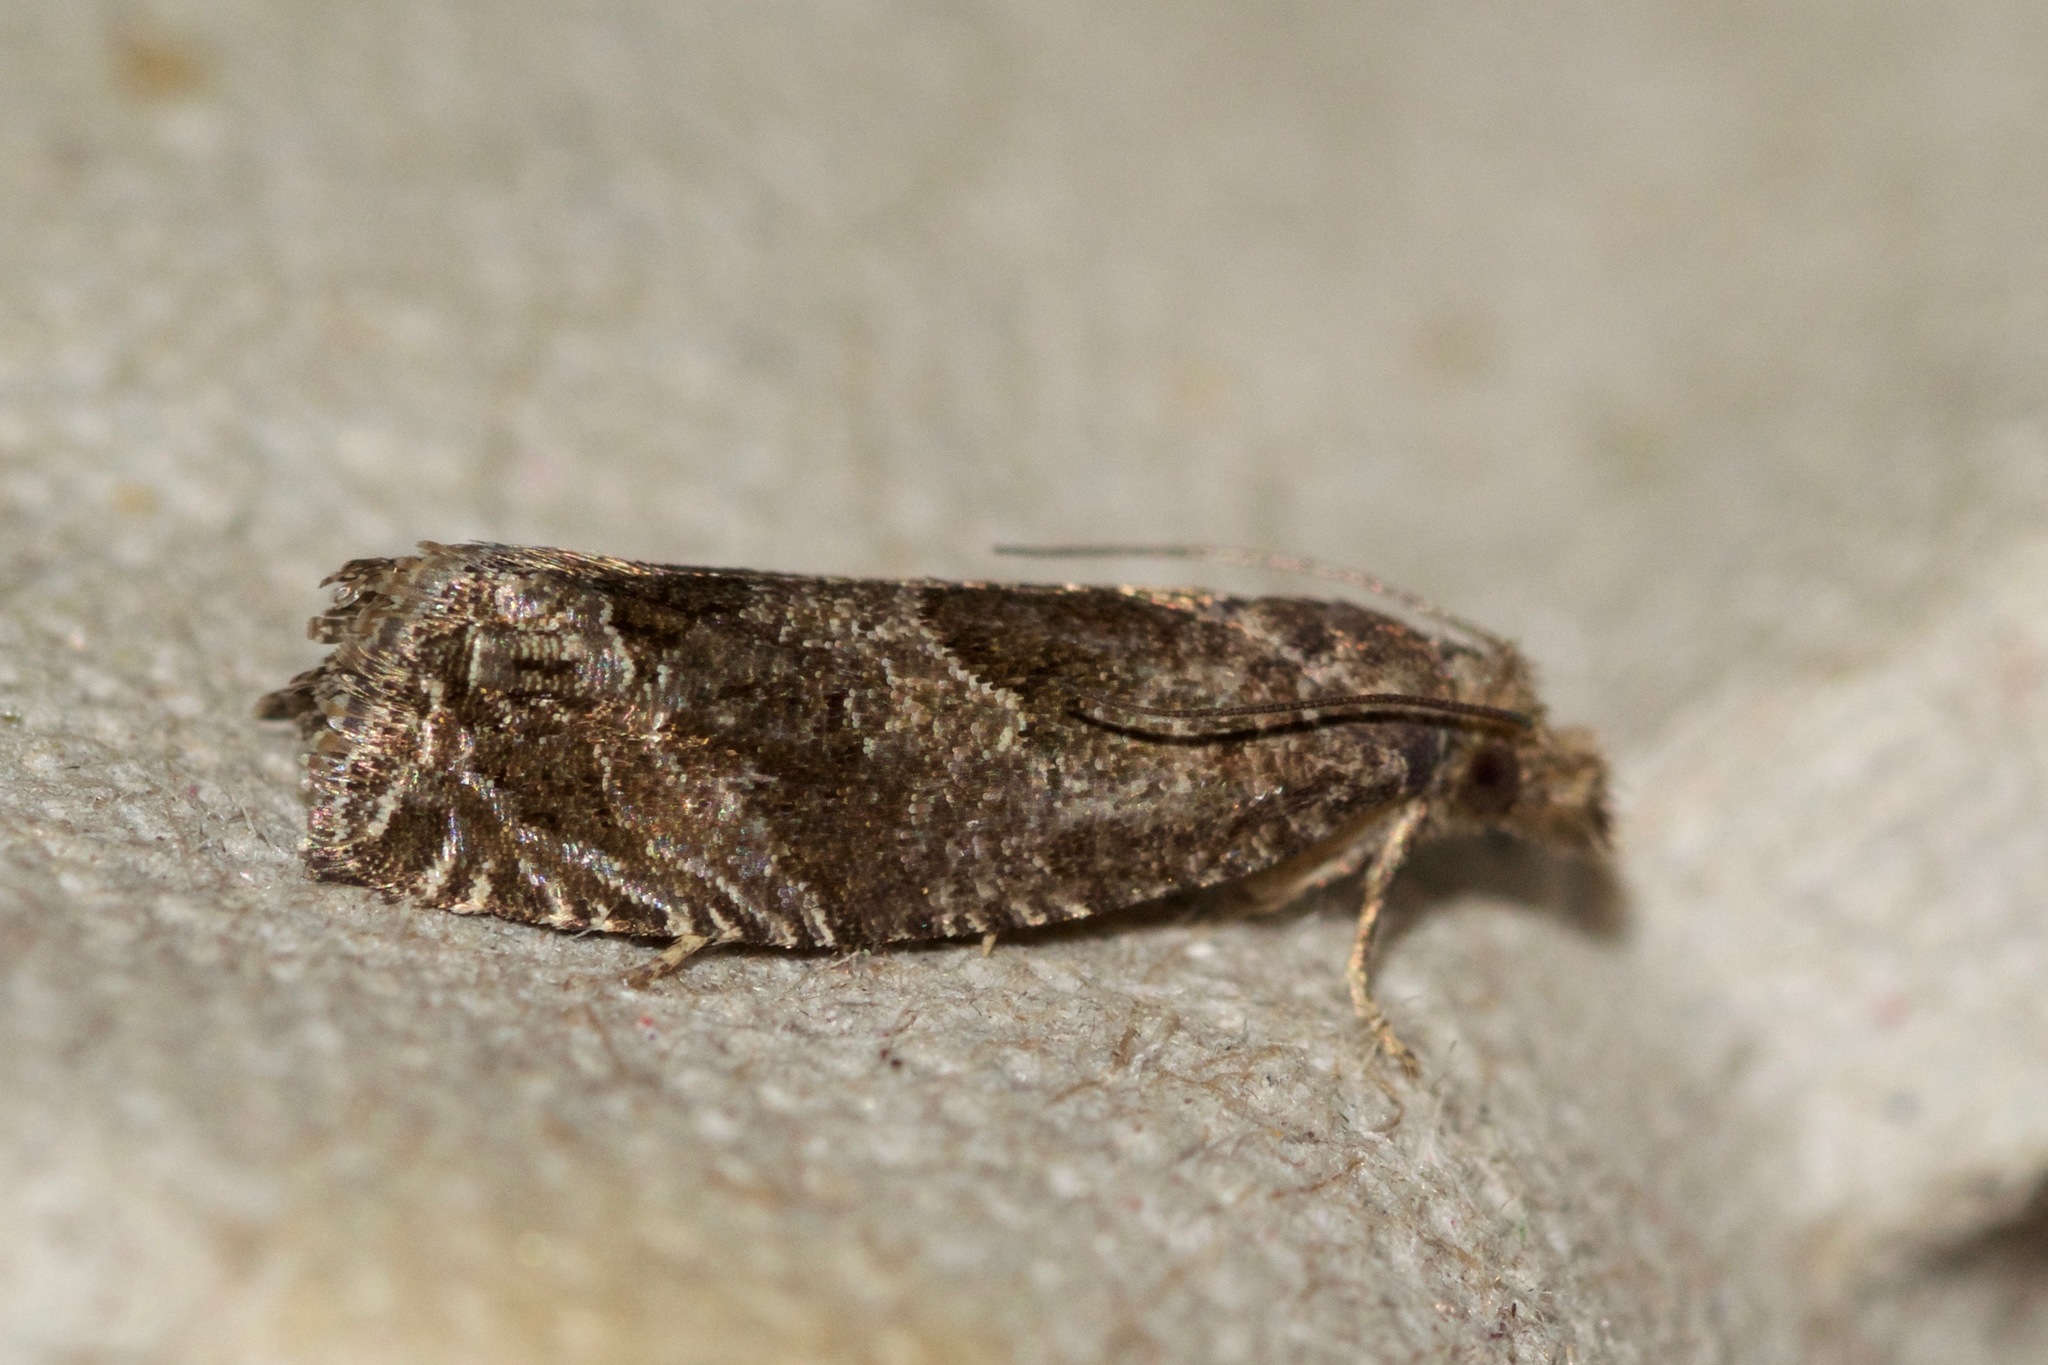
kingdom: Animalia
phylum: Arthropoda
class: Insecta
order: Lepidoptera
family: Tortricidae
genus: Pelochrista
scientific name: Pelochrista milleri
